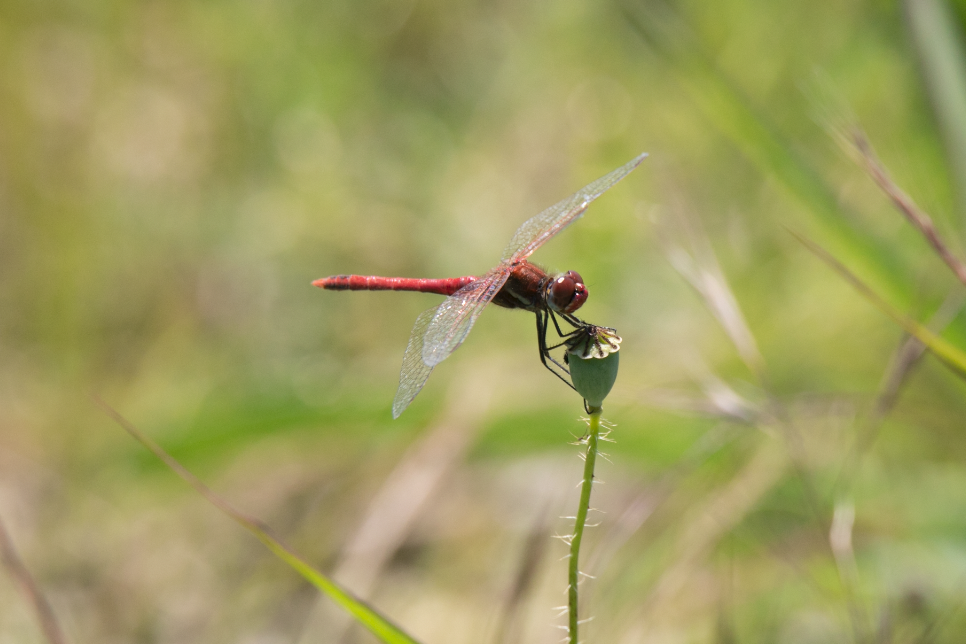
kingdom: Animalia
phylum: Arthropoda
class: Insecta
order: Odonata
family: Libellulidae
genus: Sympetrum
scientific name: Sympetrum sanguineum
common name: Ruddy darter
